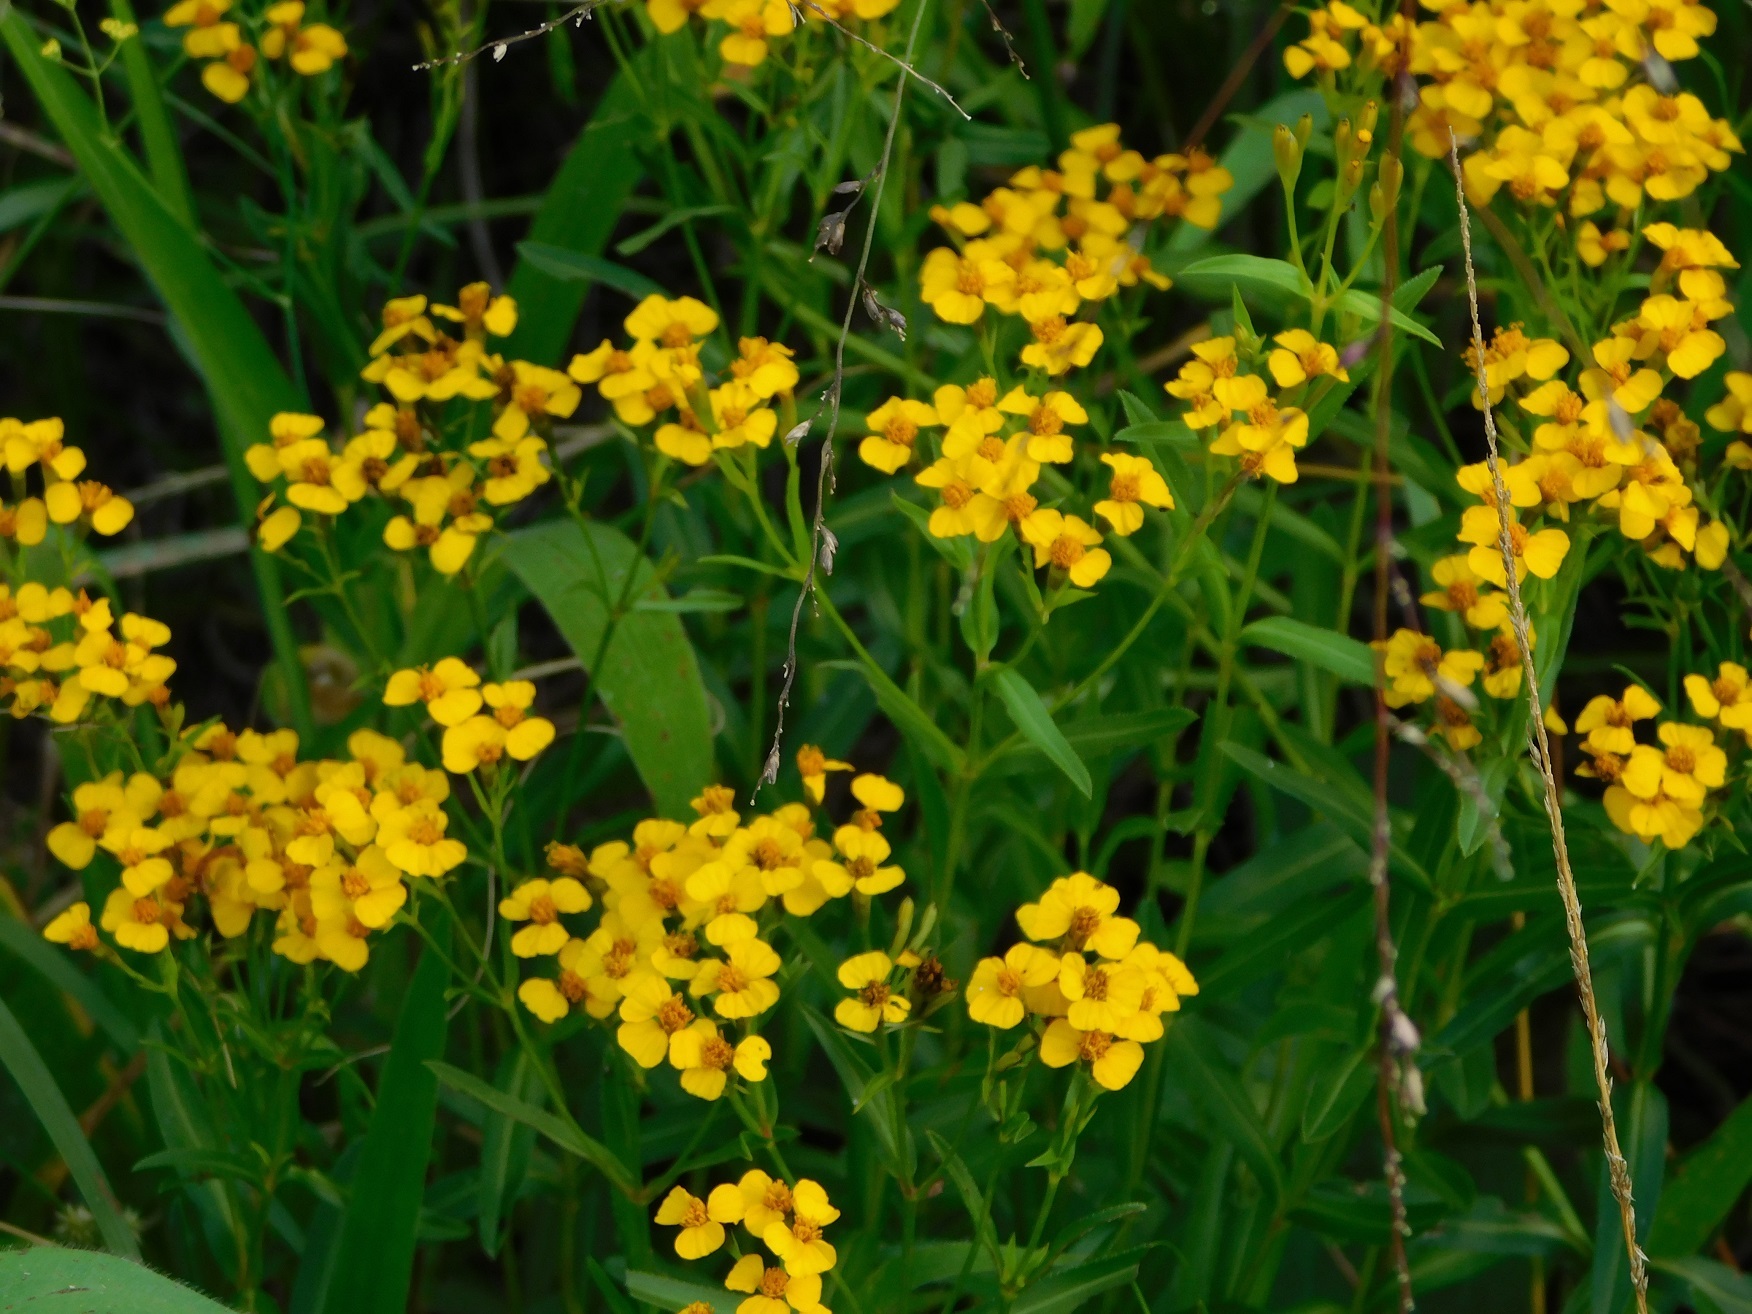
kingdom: Plantae
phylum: Tracheophyta
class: Magnoliopsida
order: Asterales
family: Asteraceae
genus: Tagetes
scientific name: Tagetes lucida
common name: Sweetscented marigold
